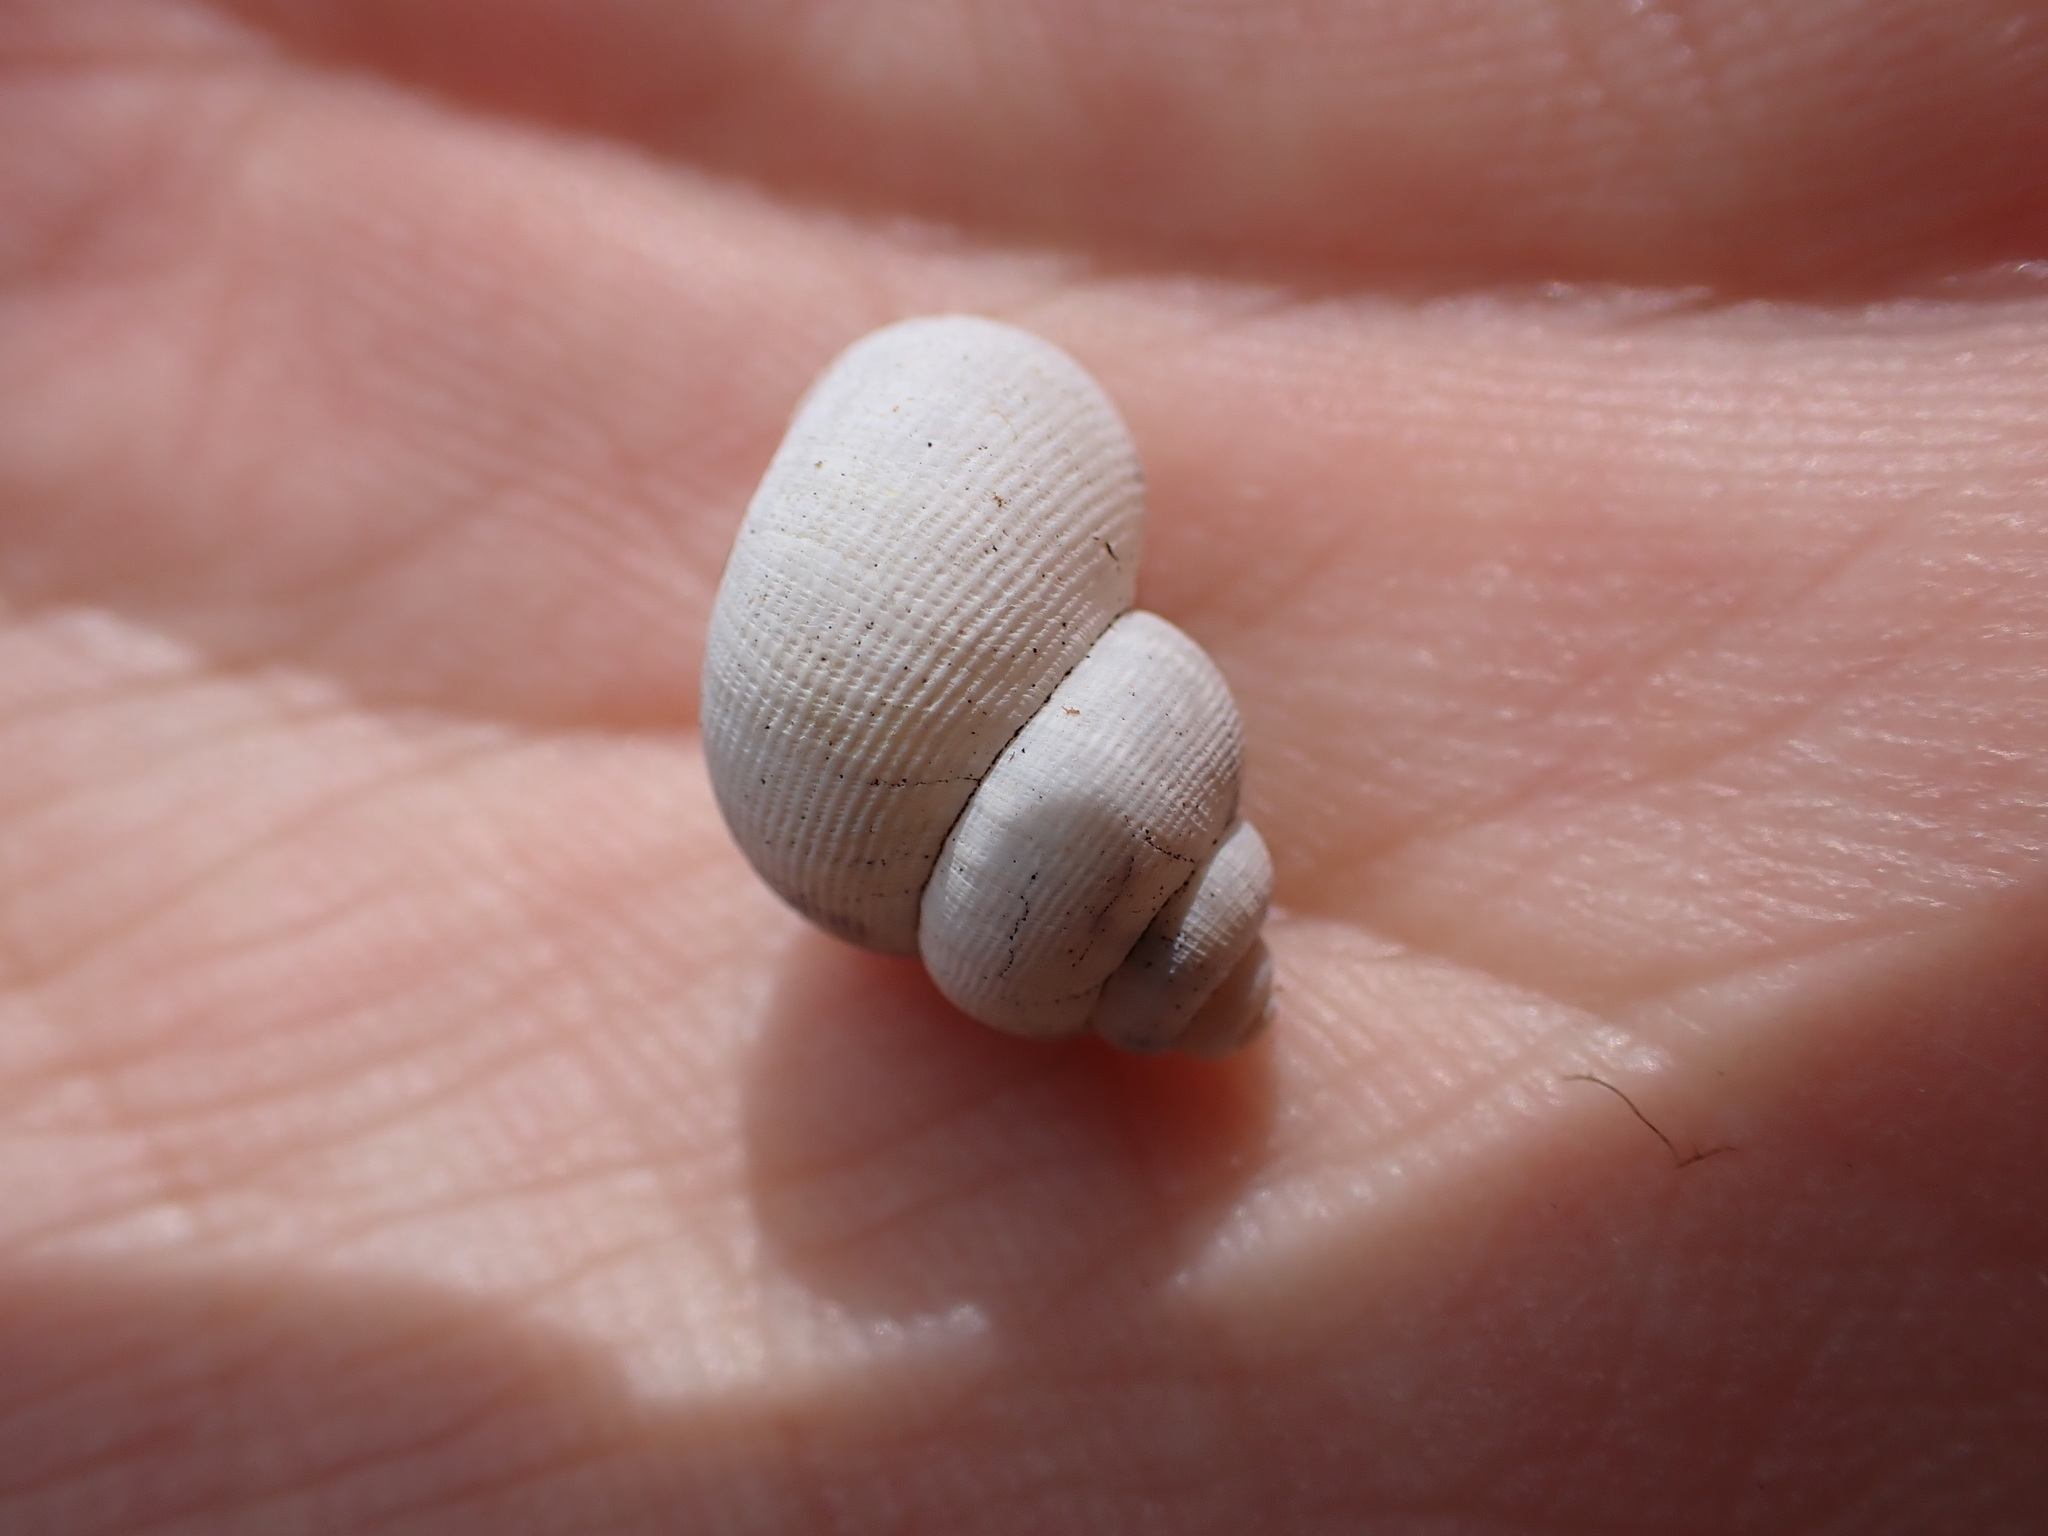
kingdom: Animalia
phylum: Mollusca
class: Gastropoda
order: Littorinimorpha
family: Pomatiidae
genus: Pomatias
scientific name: Pomatias elegans
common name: Red-mouthed snail
